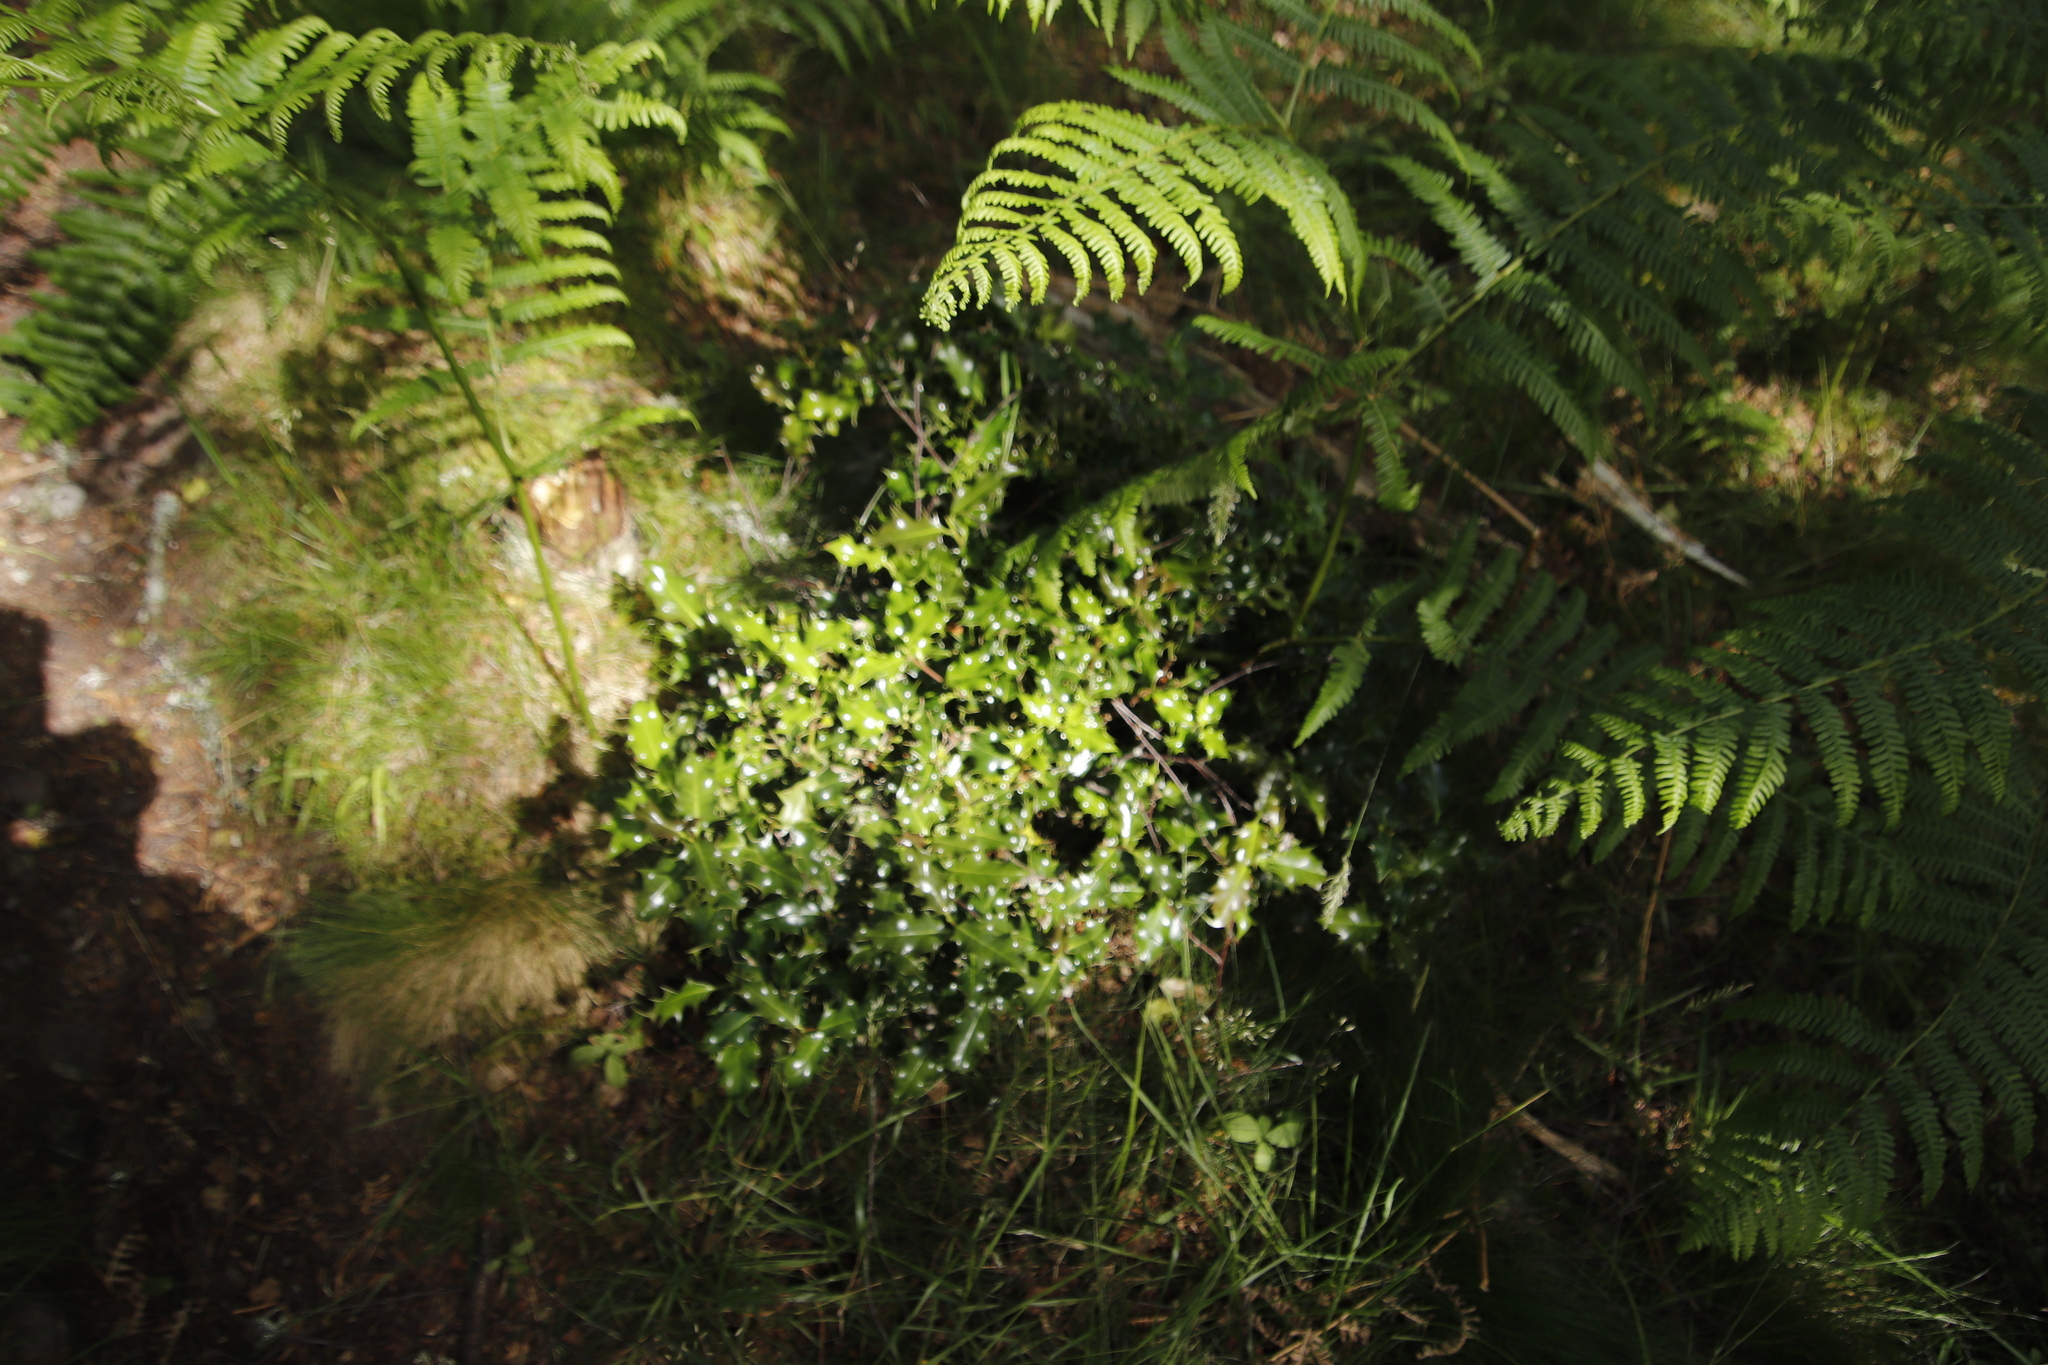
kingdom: Plantae
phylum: Tracheophyta
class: Magnoliopsida
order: Aquifoliales
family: Aquifoliaceae
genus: Ilex
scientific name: Ilex aquifolium
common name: English holly
